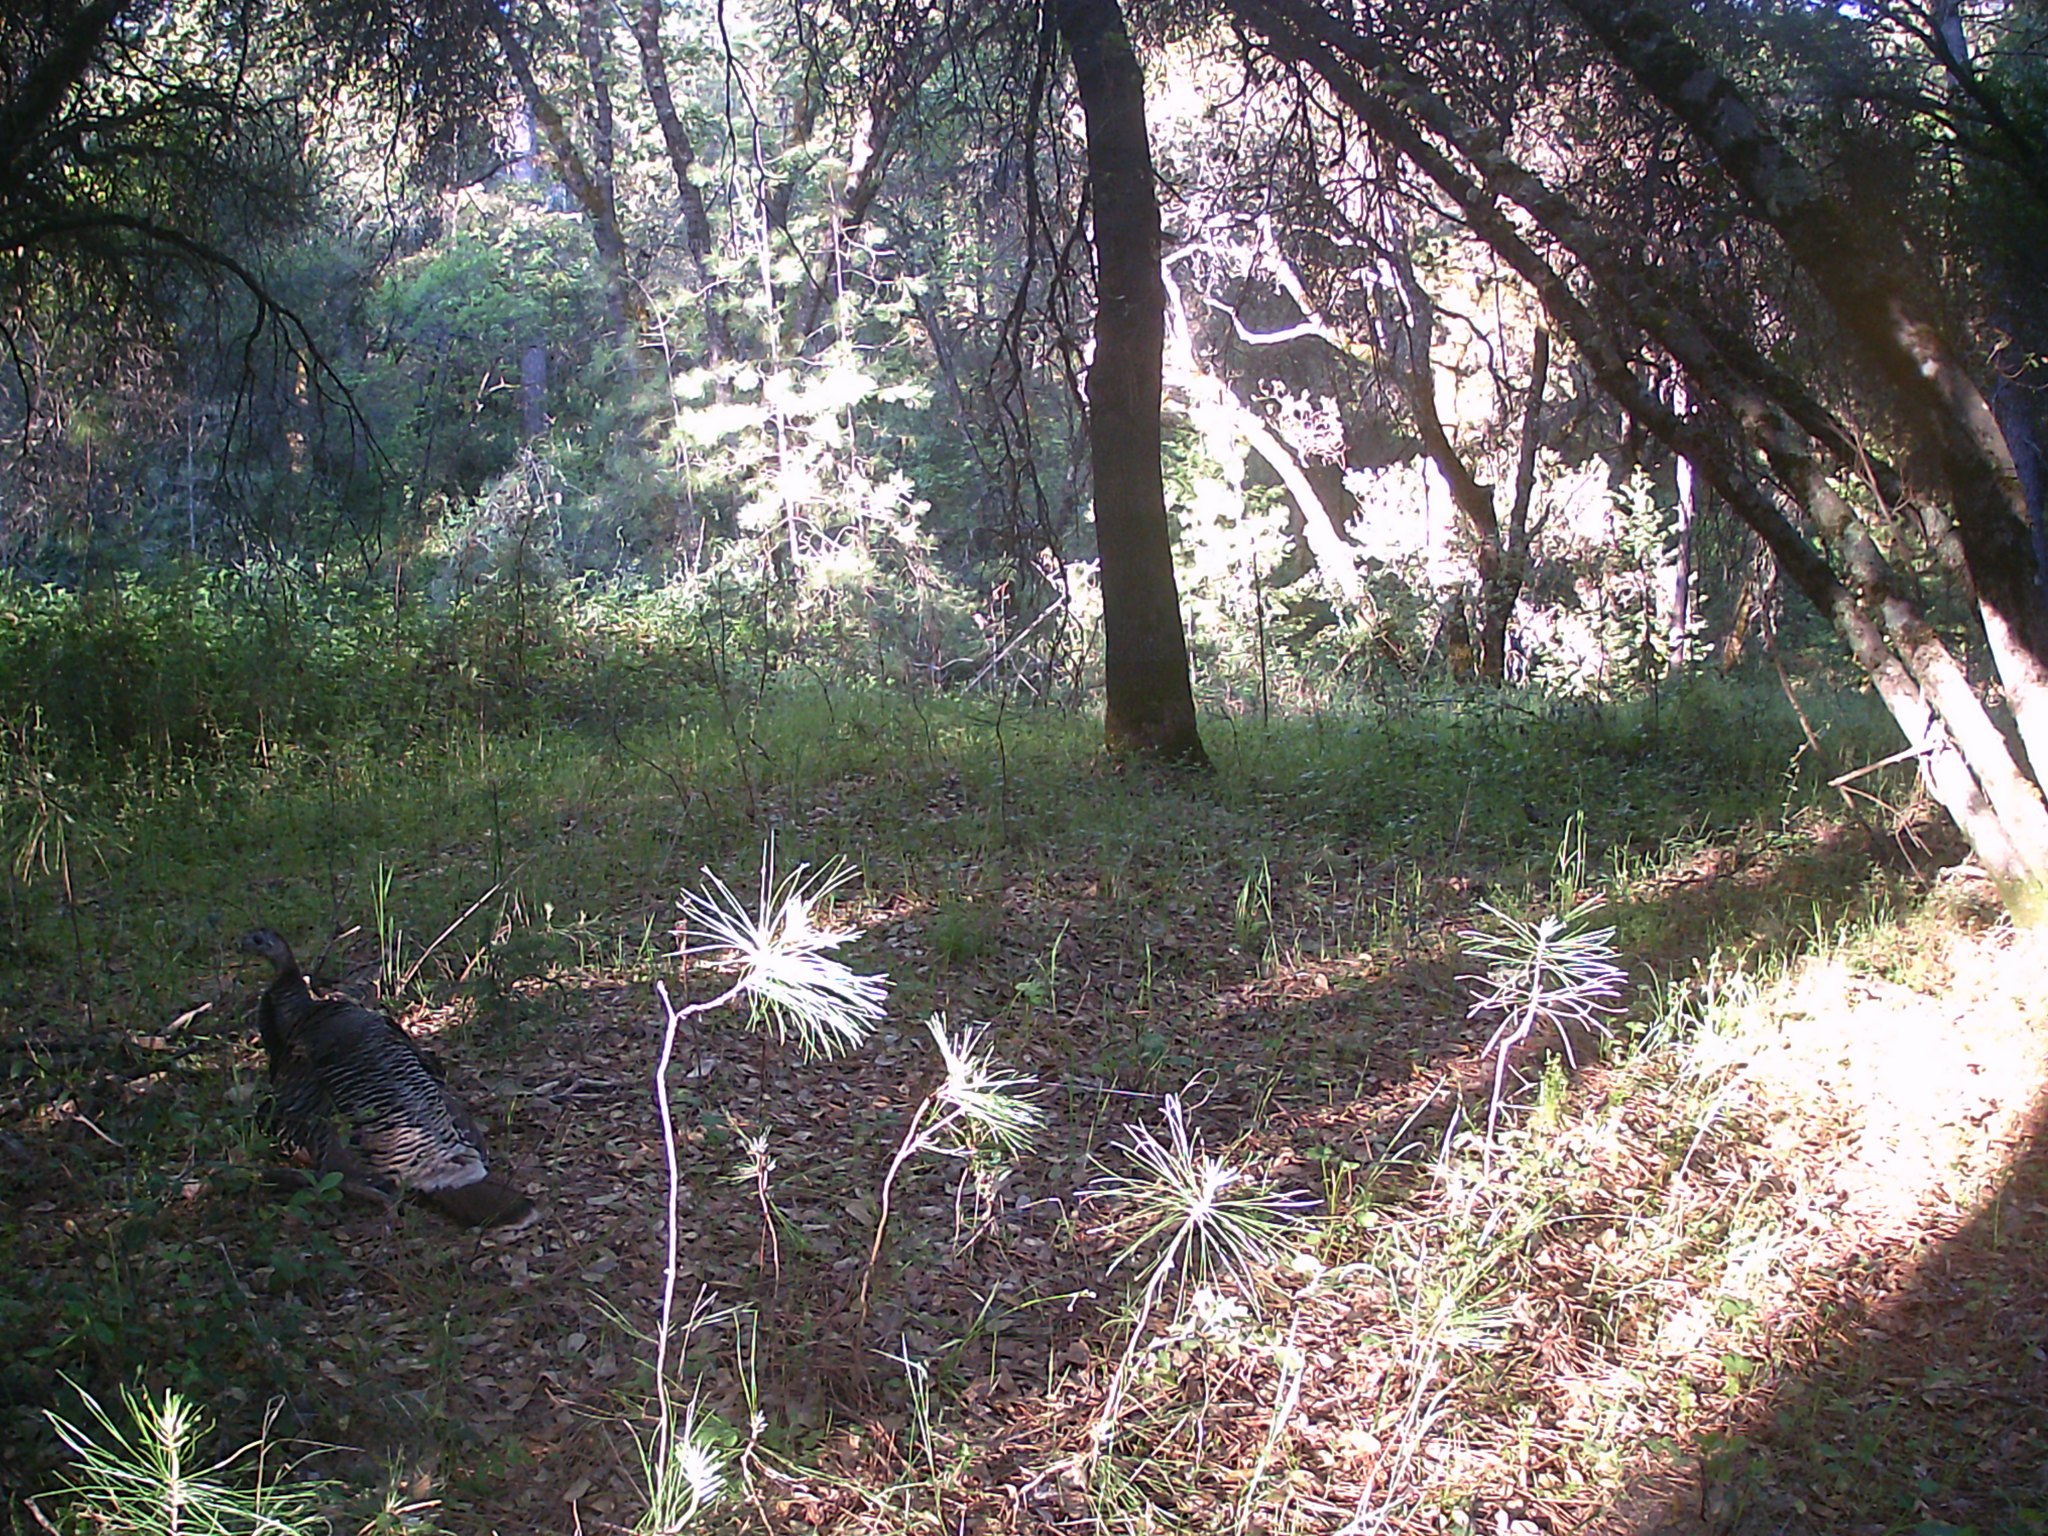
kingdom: Animalia
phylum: Chordata
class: Aves
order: Galliformes
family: Phasianidae
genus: Meleagris
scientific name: Meleagris gallopavo
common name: Wild turkey
